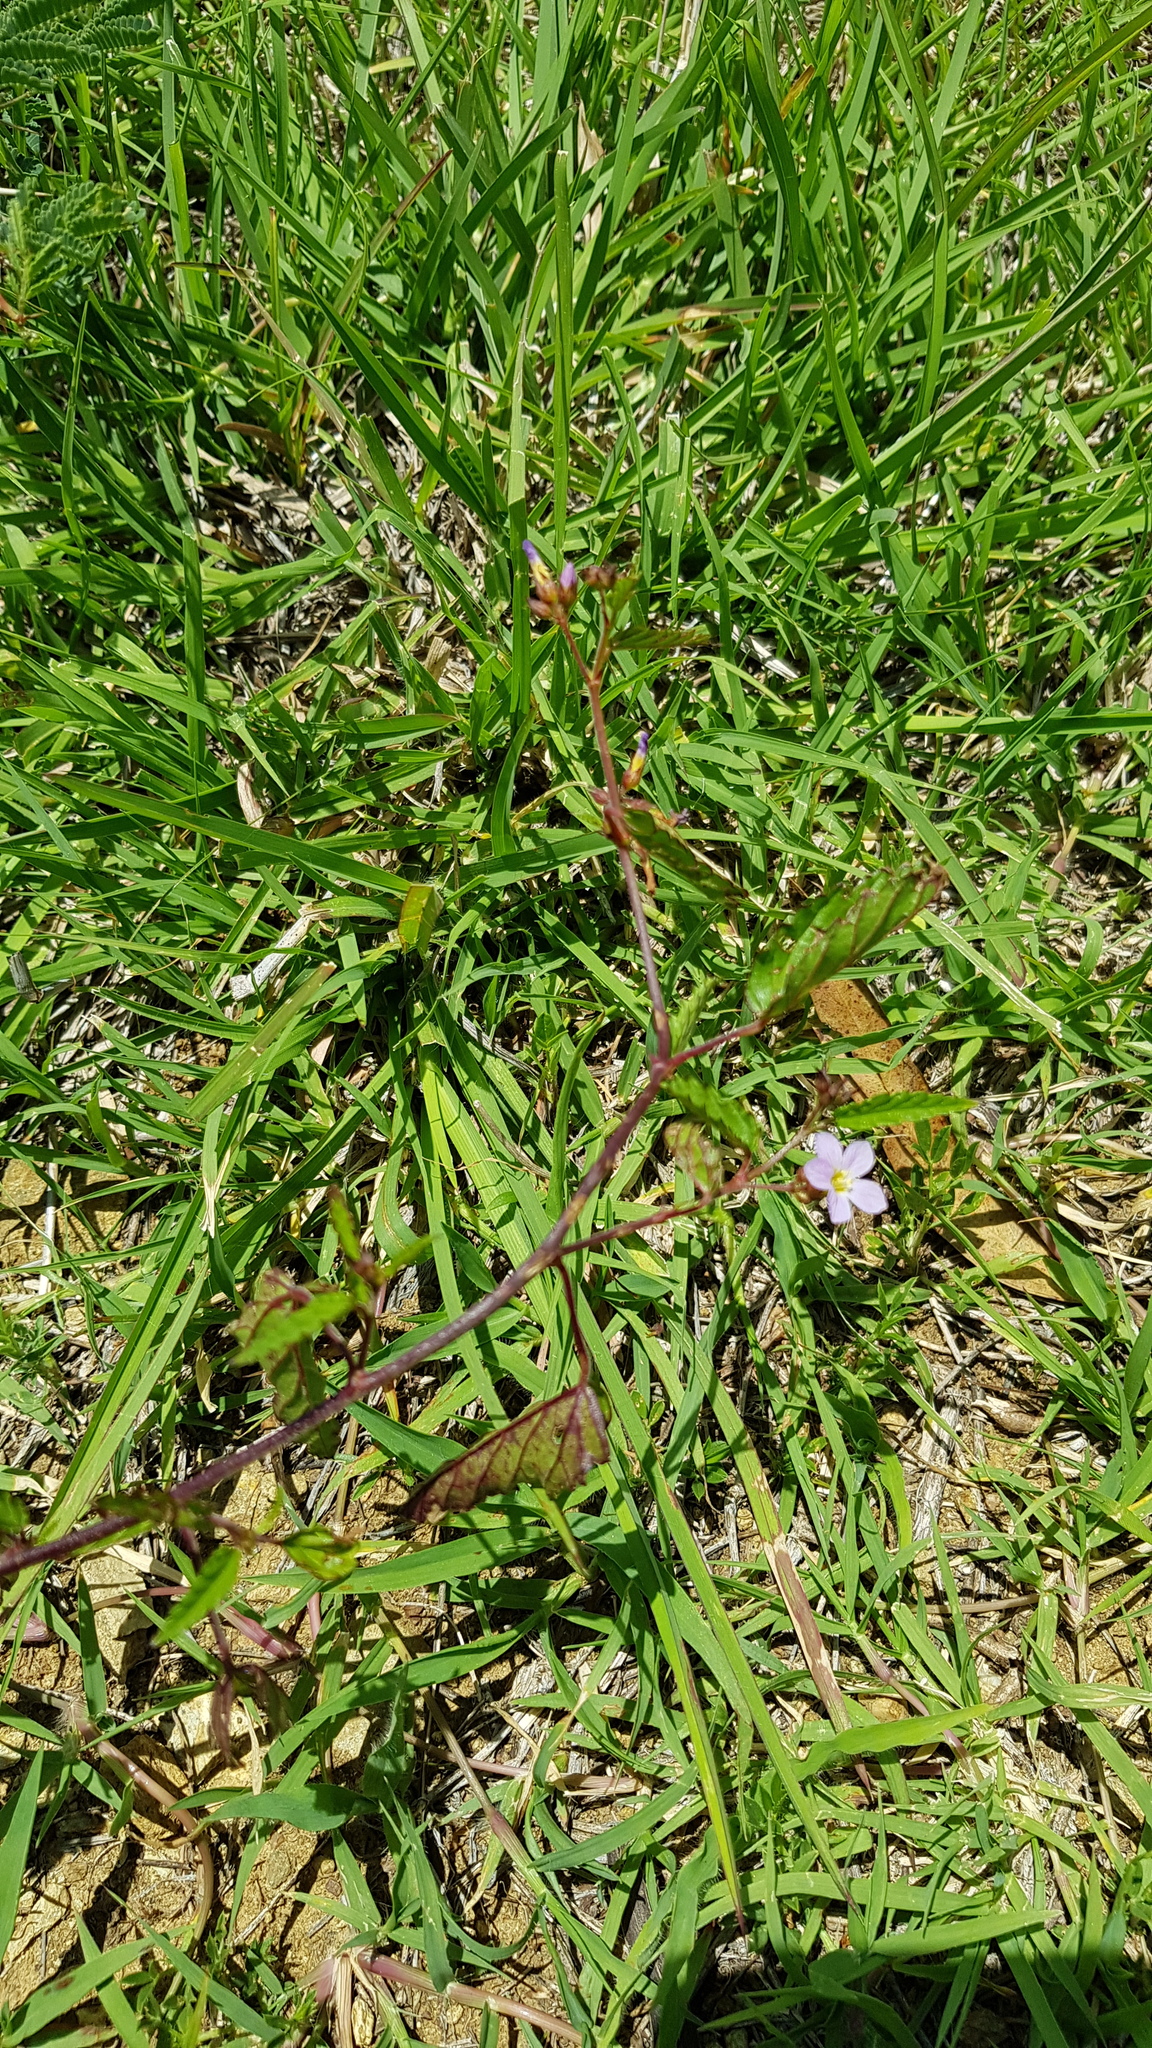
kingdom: Plantae
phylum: Tracheophyta
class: Magnoliopsida
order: Malvales
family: Malvaceae
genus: Melochia
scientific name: Melochia pyramidata
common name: Pyramidflower
